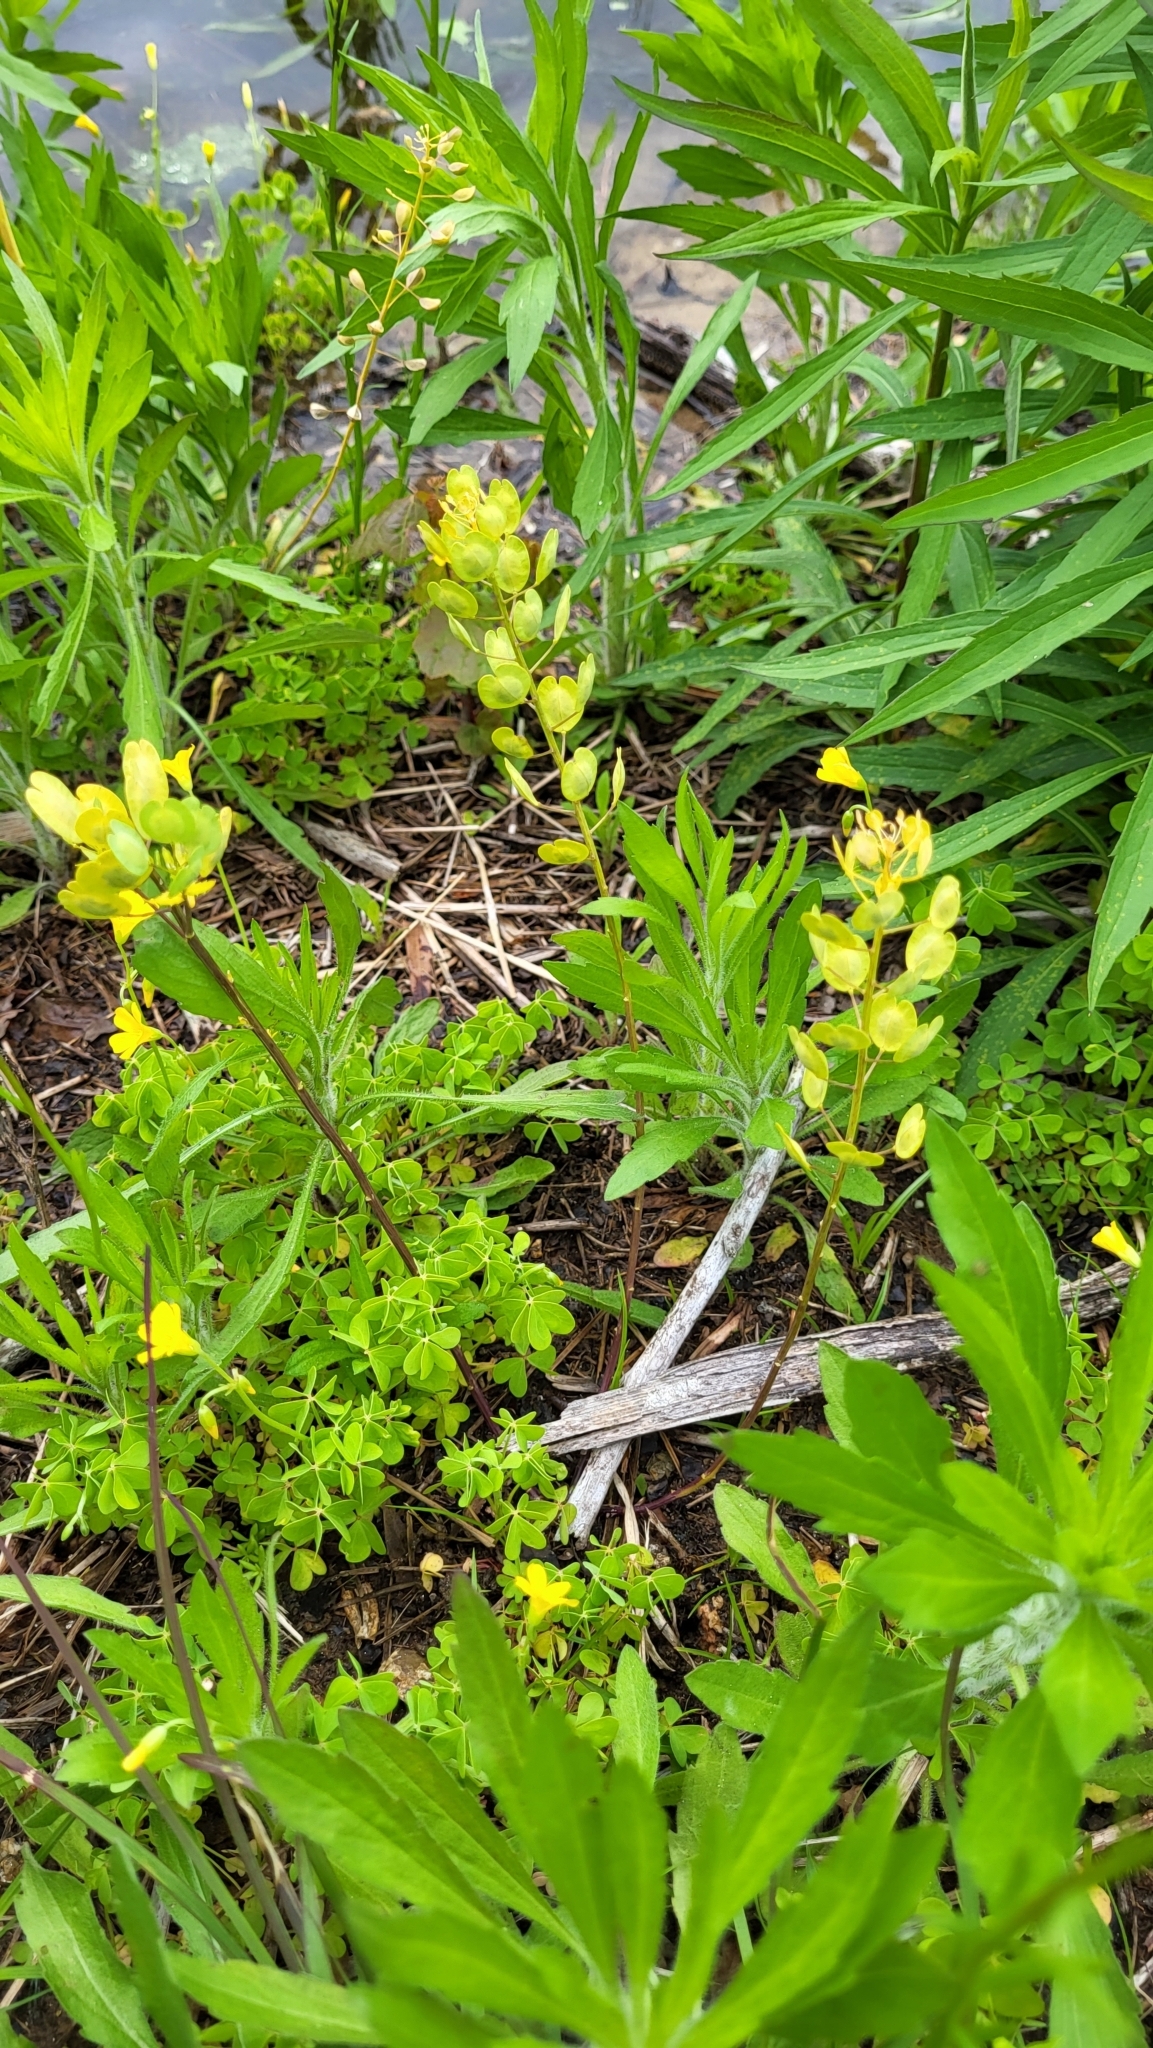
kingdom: Plantae
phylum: Tracheophyta
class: Magnoliopsida
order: Brassicales
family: Brassicaceae
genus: Thlaspi
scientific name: Thlaspi arvense
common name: Field pennycress
